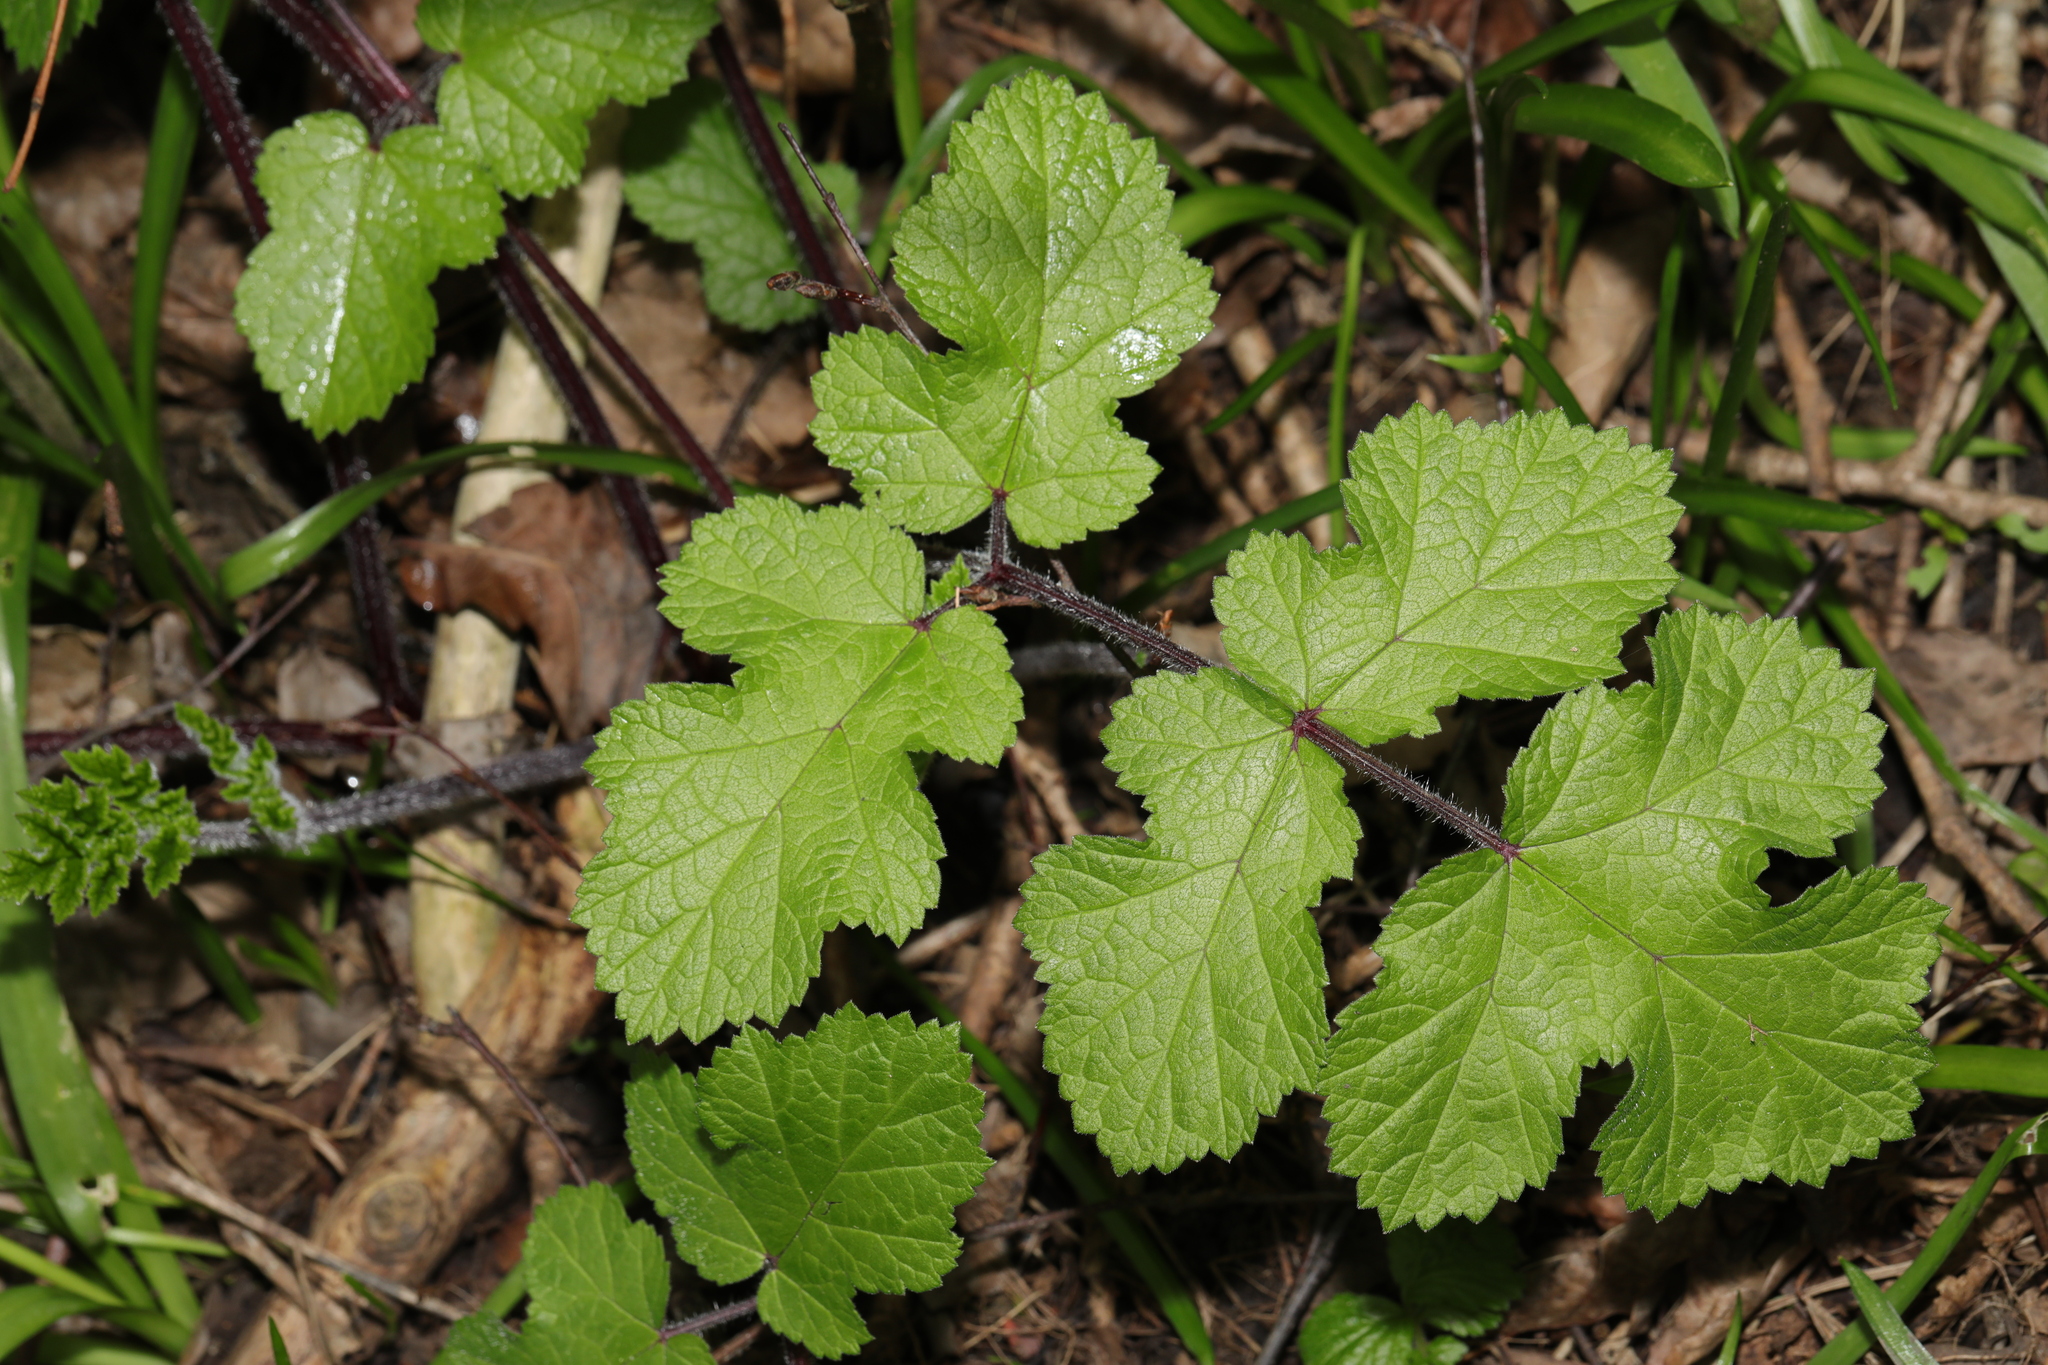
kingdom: Plantae
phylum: Tracheophyta
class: Magnoliopsida
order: Apiales
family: Apiaceae
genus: Heracleum
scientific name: Heracleum sphondylium
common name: Hogweed
